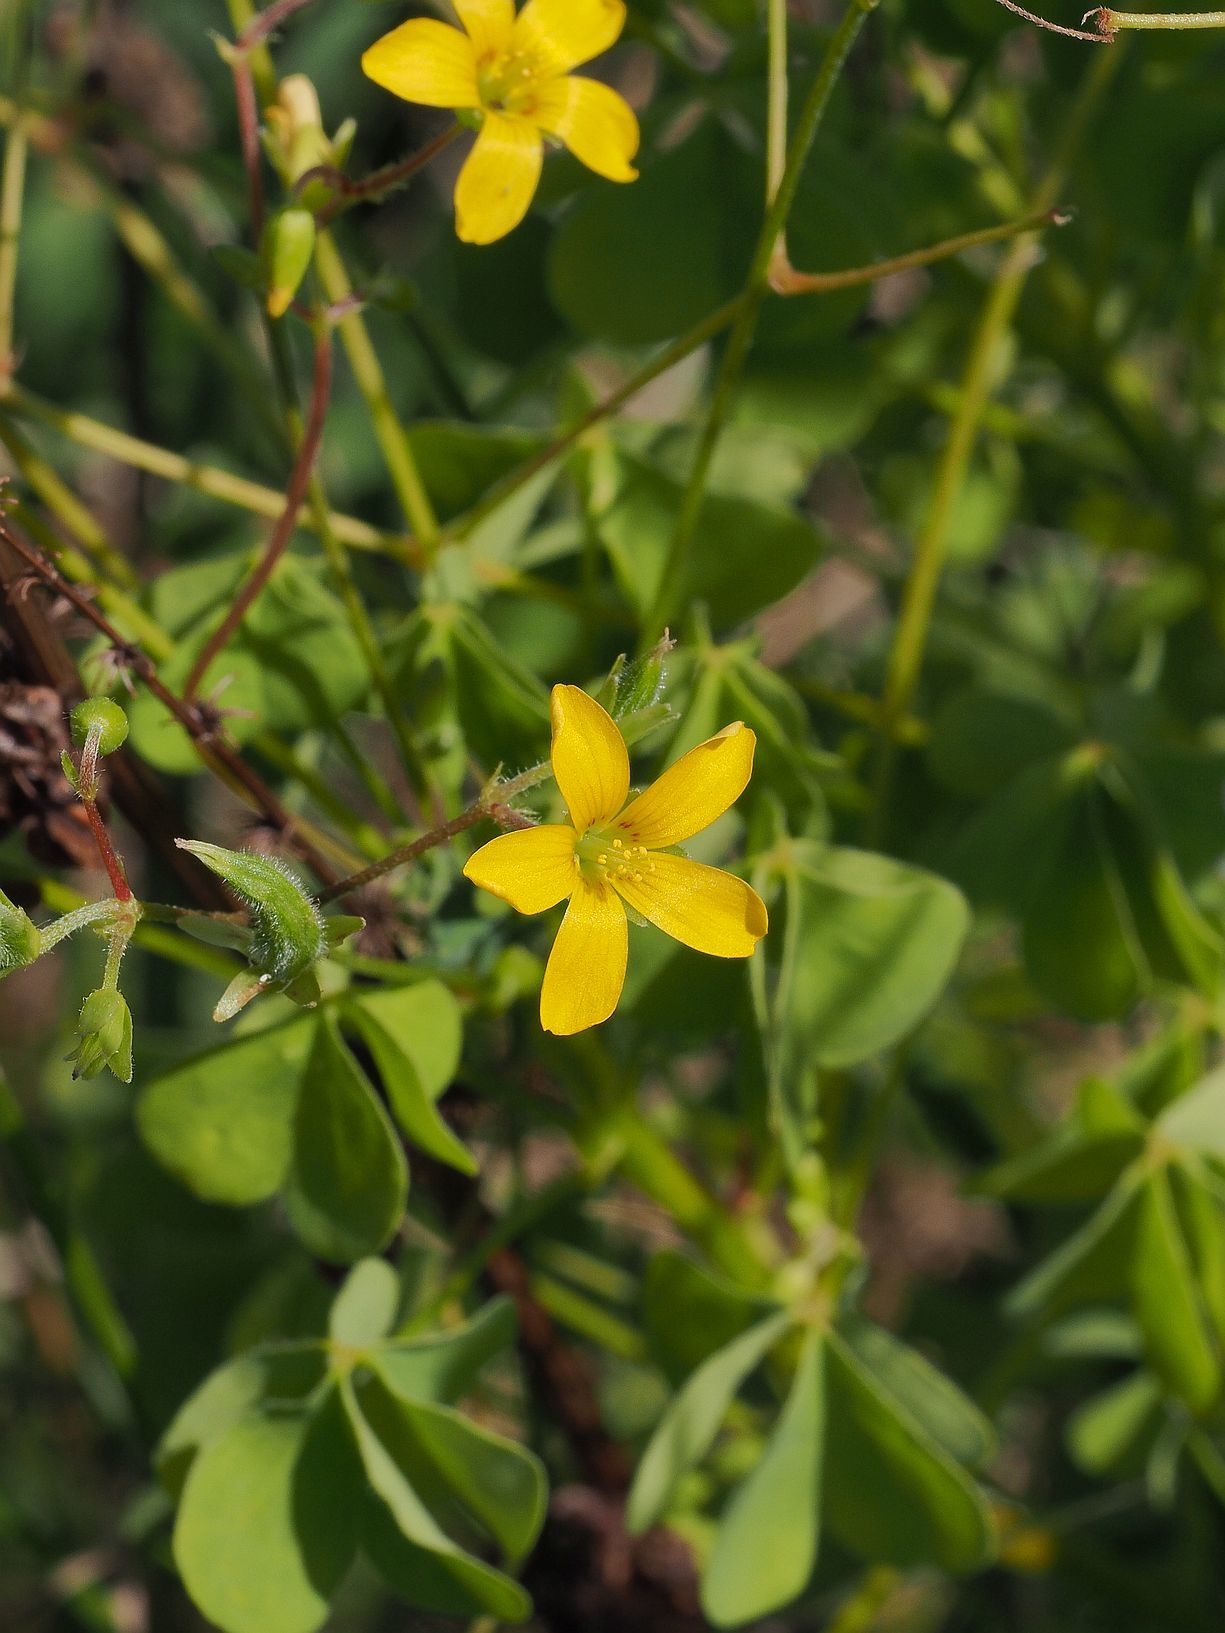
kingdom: Plantae
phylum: Tracheophyta
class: Magnoliopsida
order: Oxalidales
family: Oxalidaceae
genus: Oxalis
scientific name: Oxalis stricta
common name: Upright yellow-sorrel
